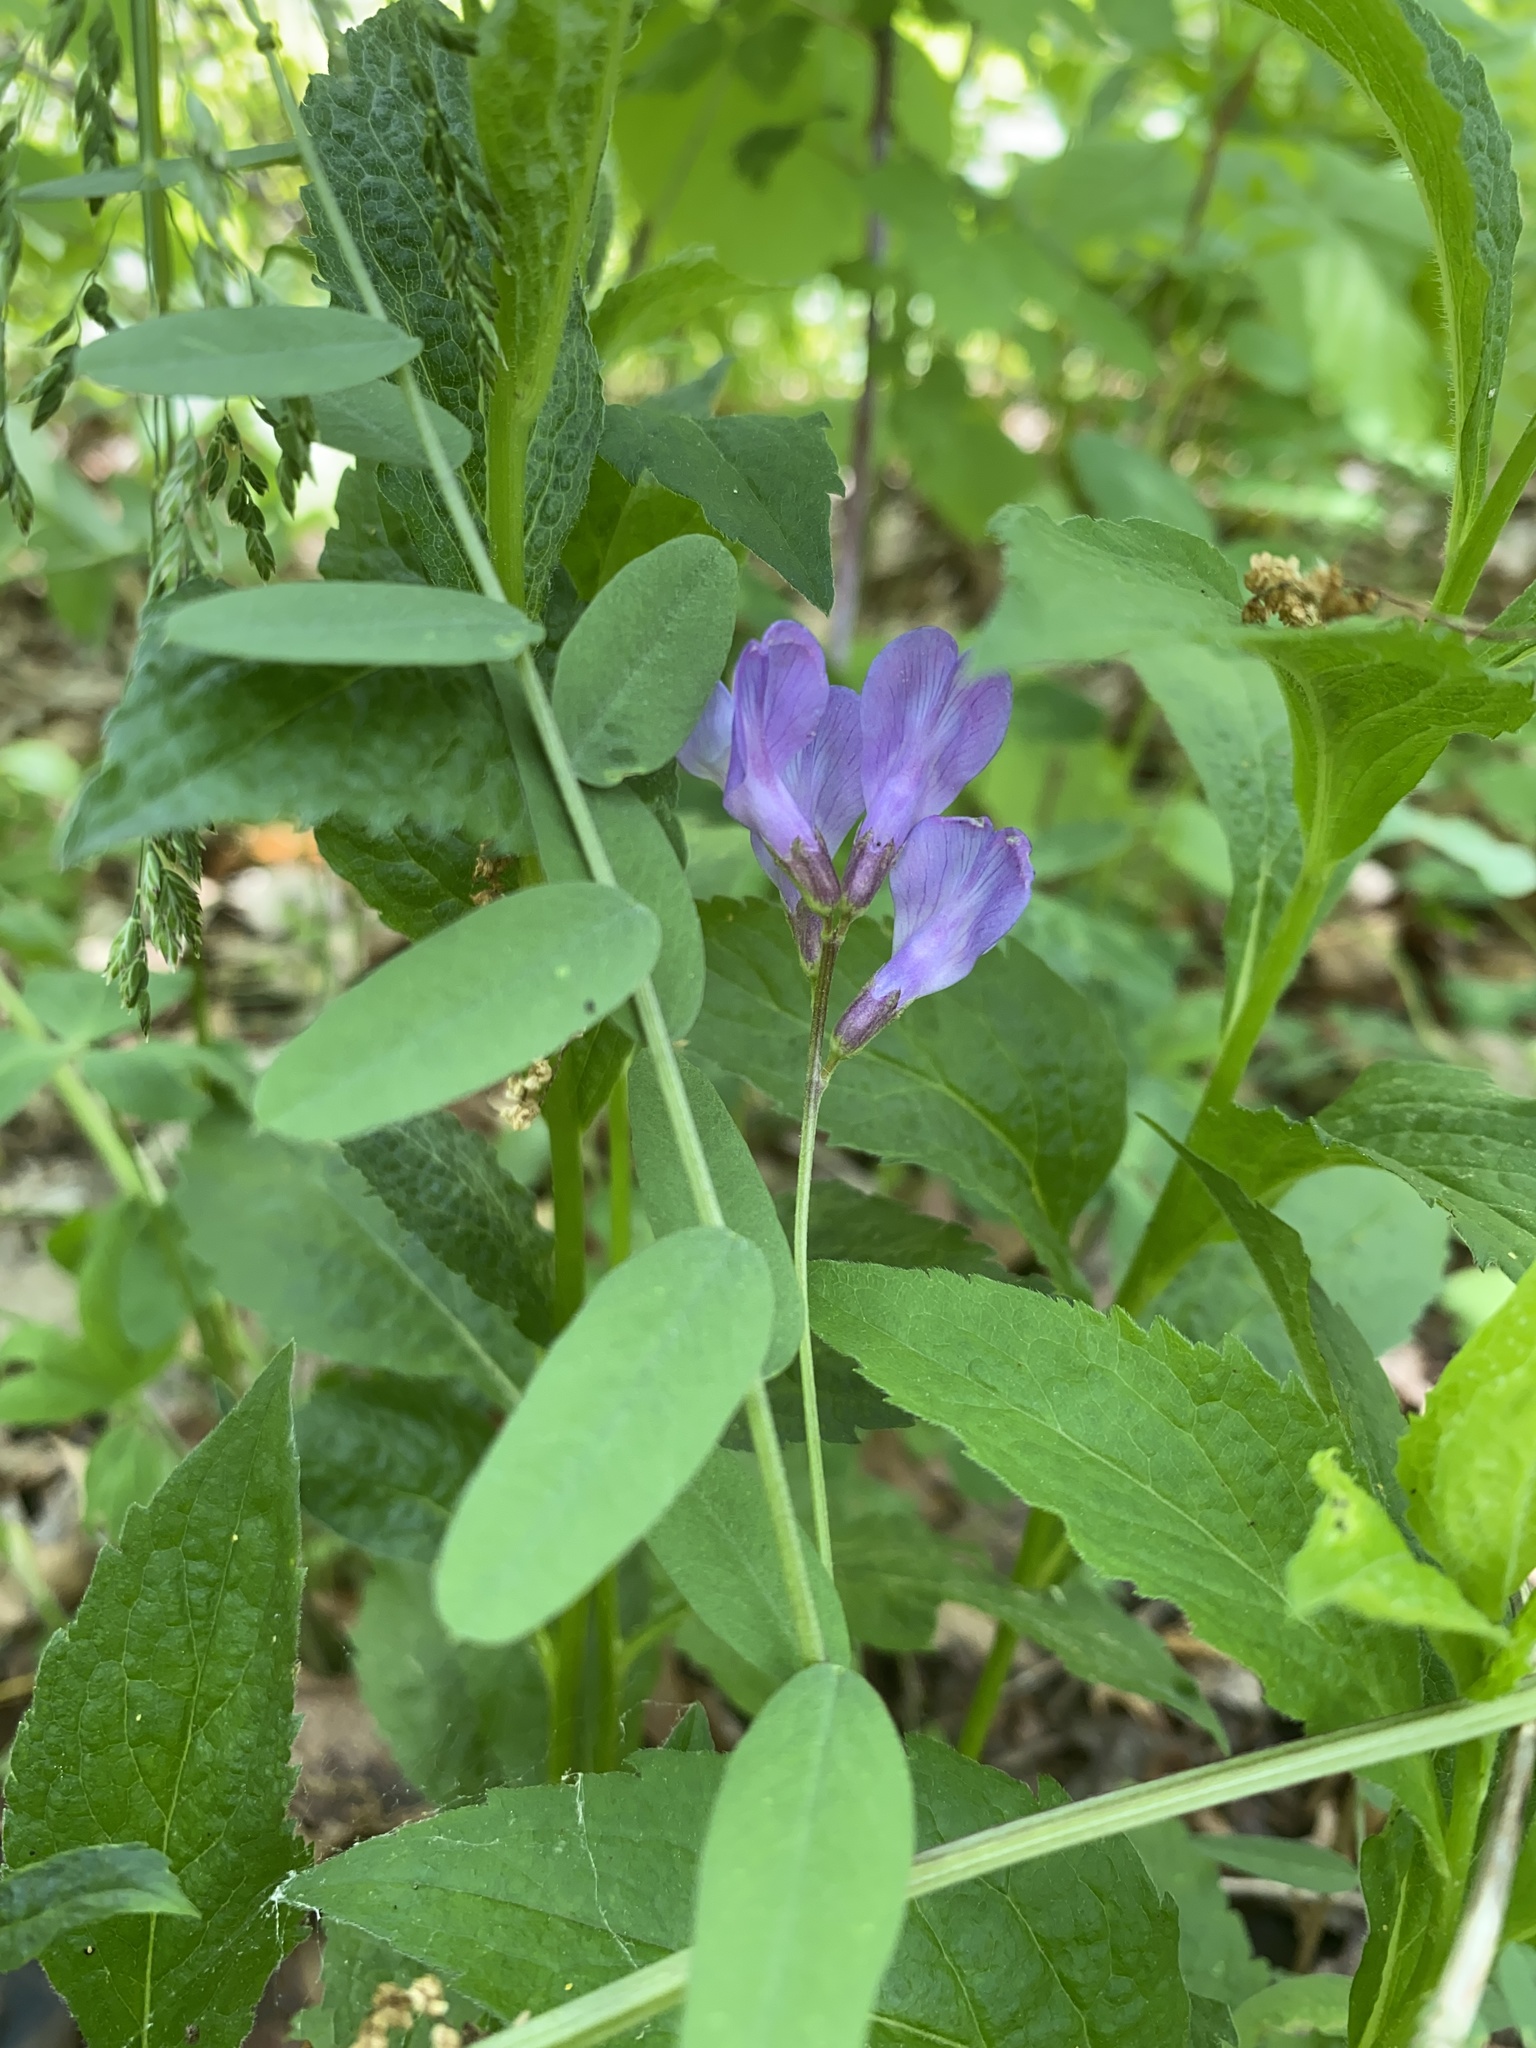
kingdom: Plantae
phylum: Tracheophyta
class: Magnoliopsida
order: Fabales
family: Fabaceae
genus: Vicia
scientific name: Vicia americana
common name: American vetch
